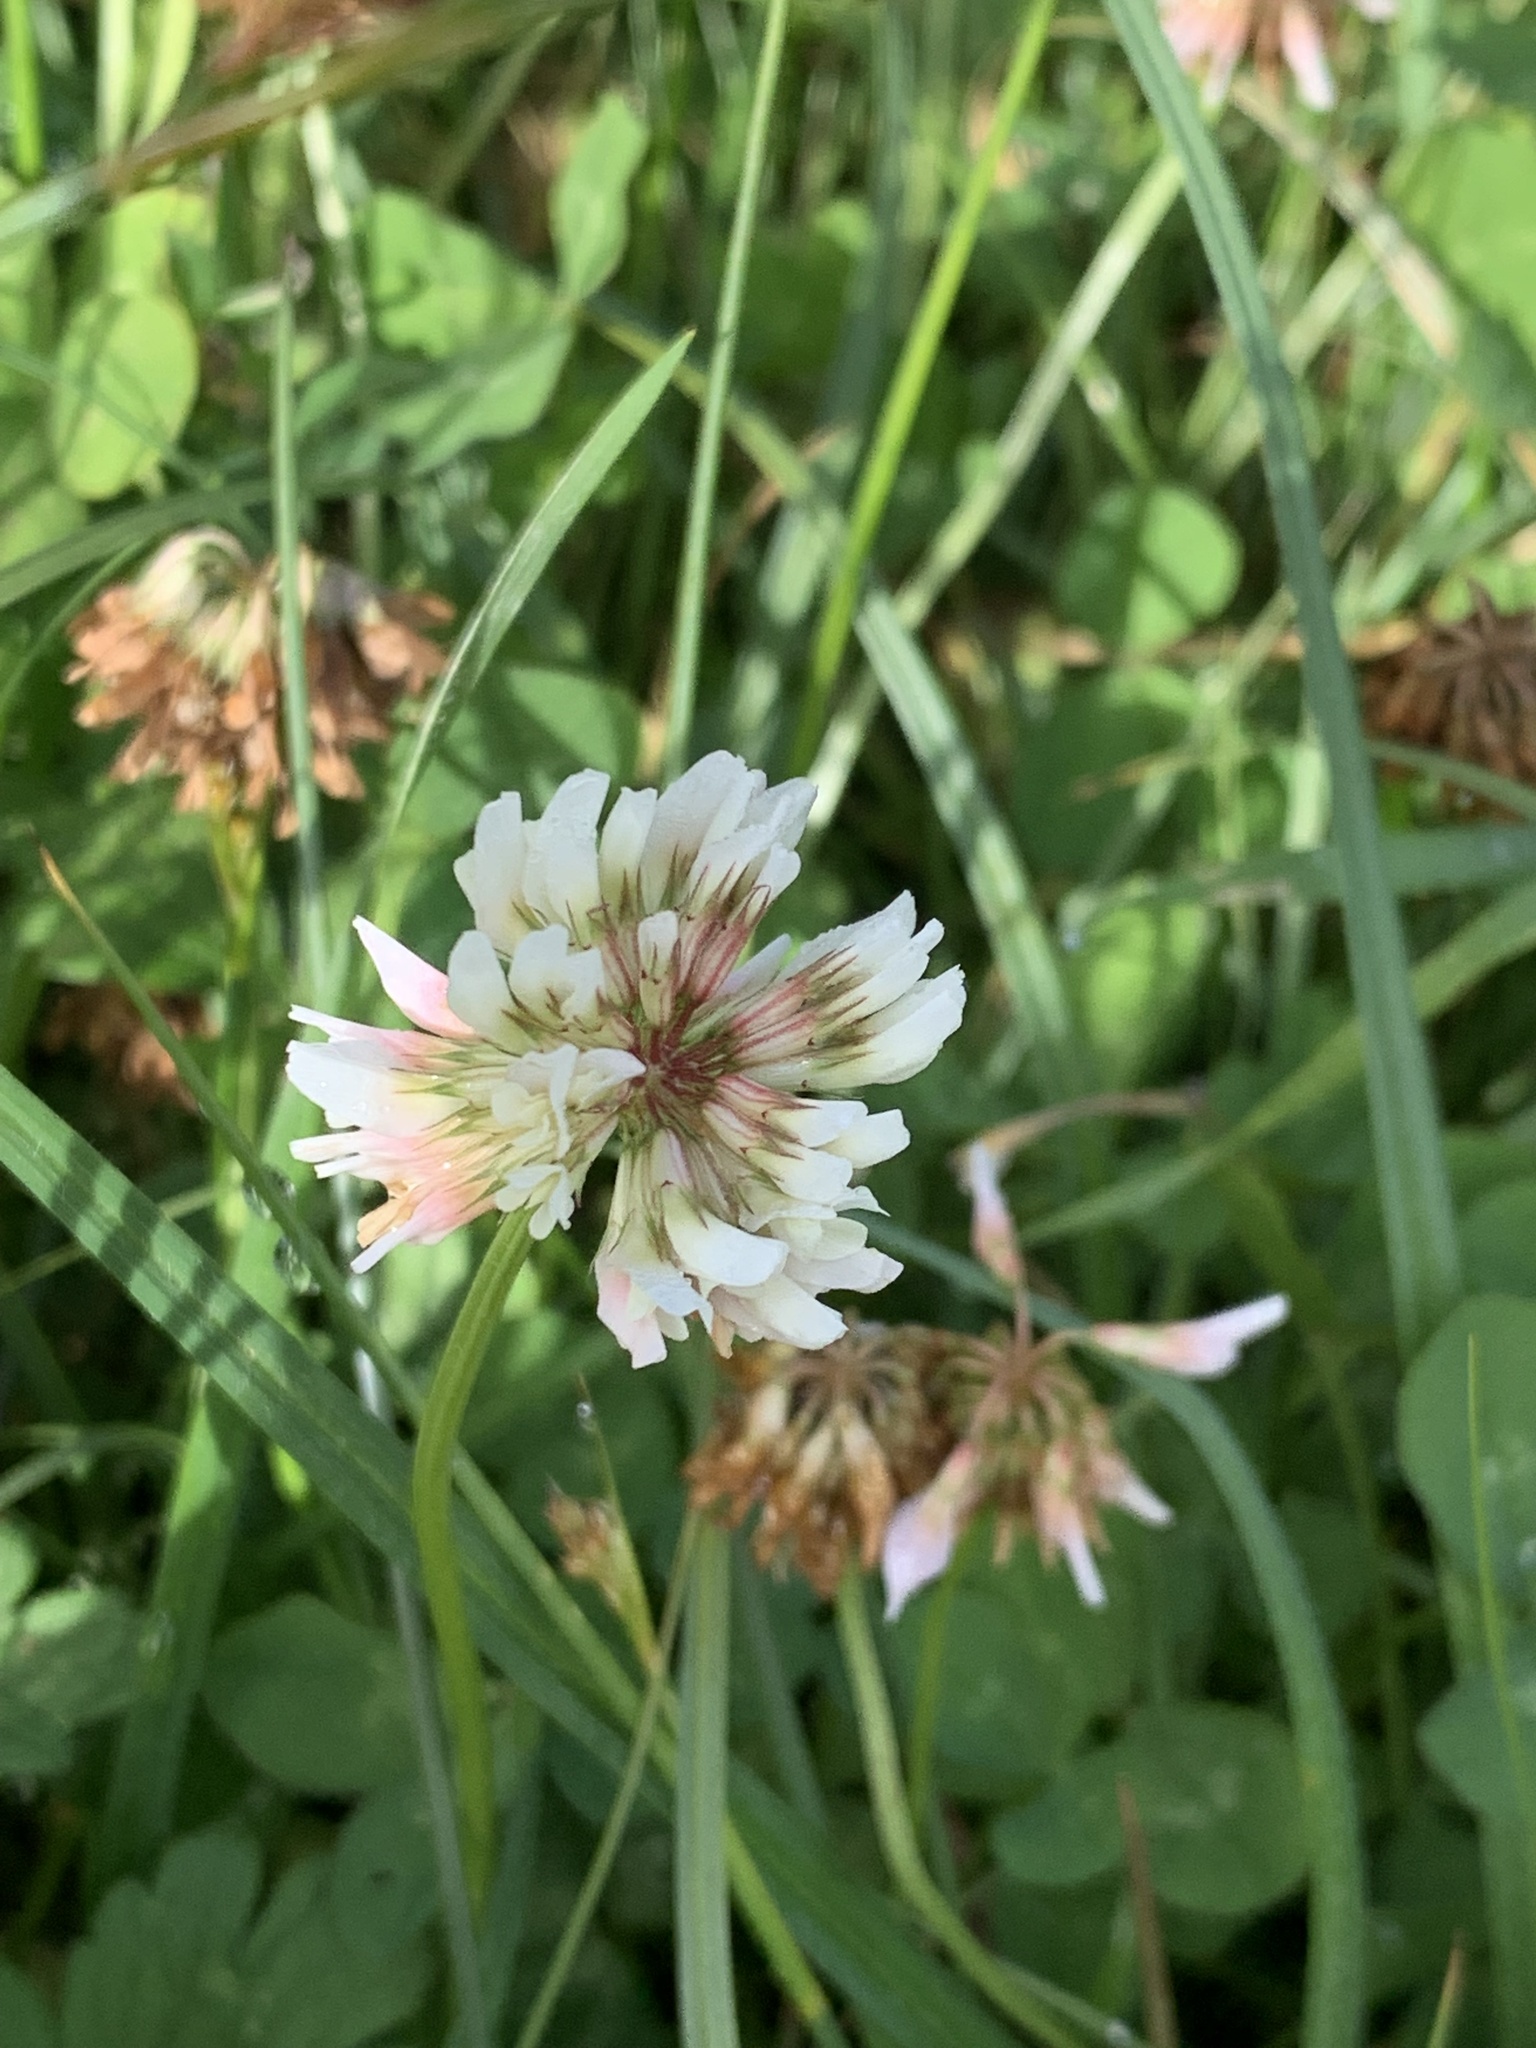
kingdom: Plantae
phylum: Tracheophyta
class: Magnoliopsida
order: Fabales
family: Fabaceae
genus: Trifolium
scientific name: Trifolium repens
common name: White clover
